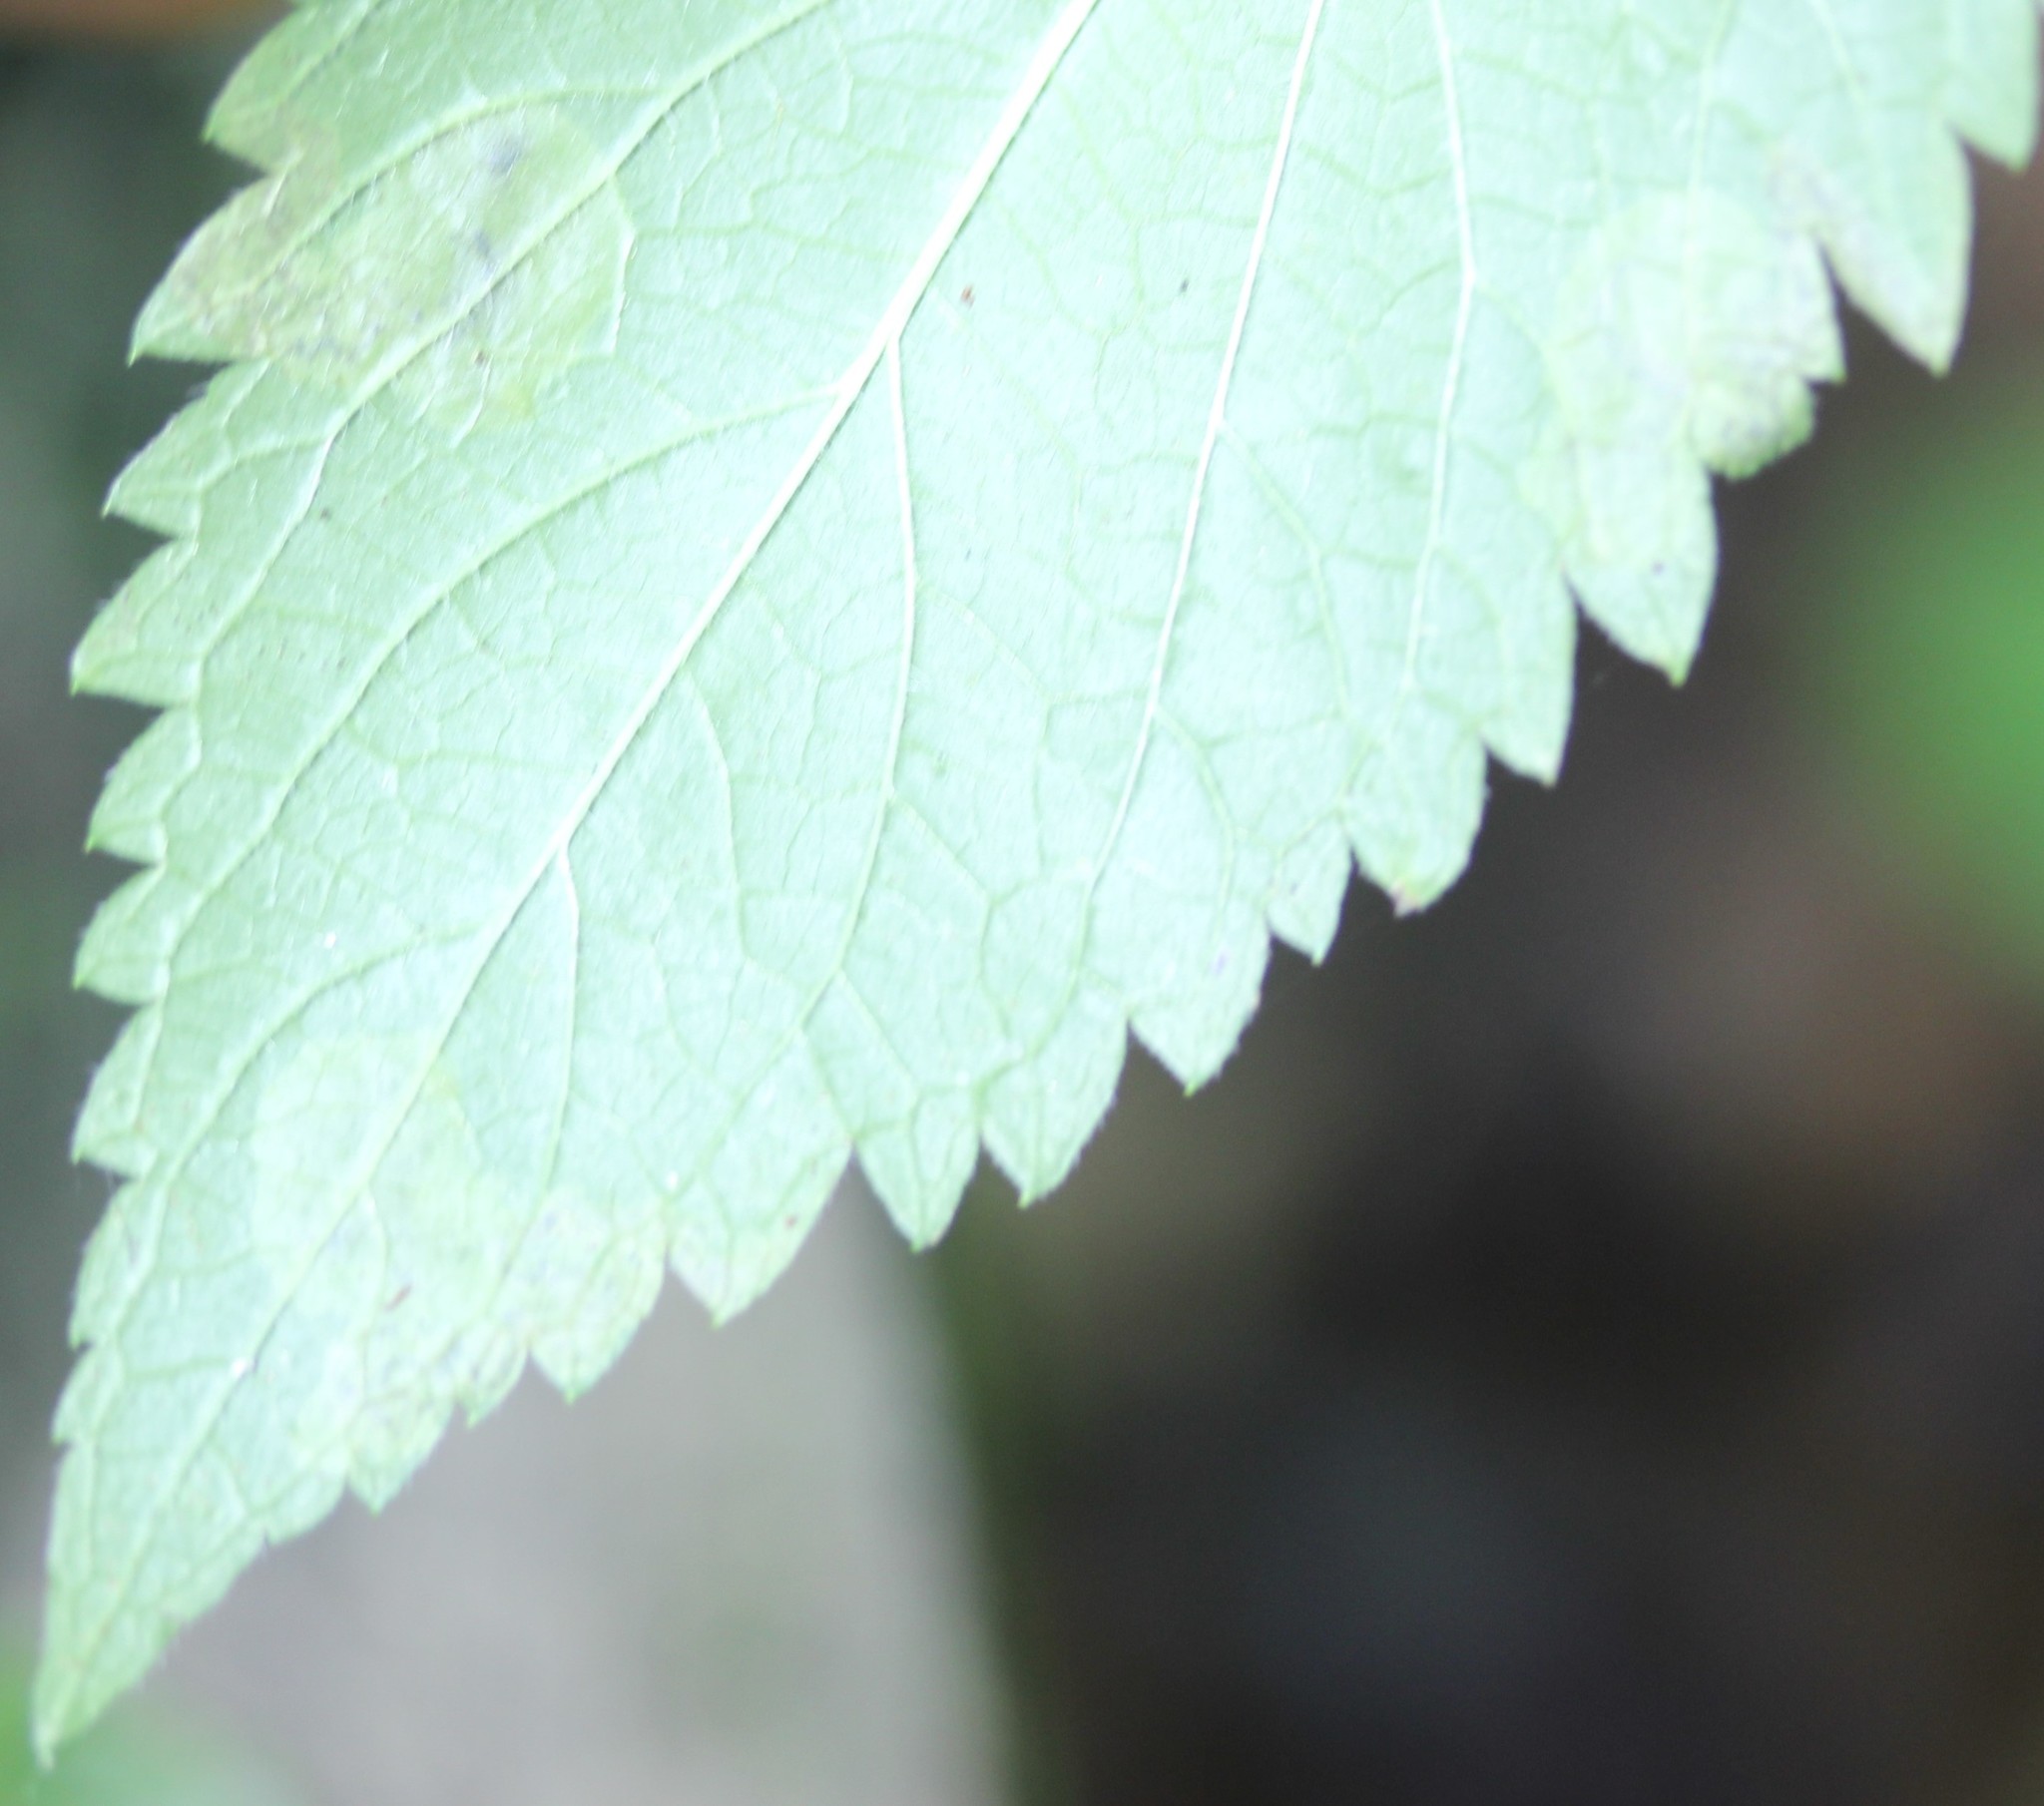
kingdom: Animalia
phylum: Arthropoda
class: Insecta
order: Diptera
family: Agromyzidae
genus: Calycomyza
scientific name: Calycomyza verbenae
